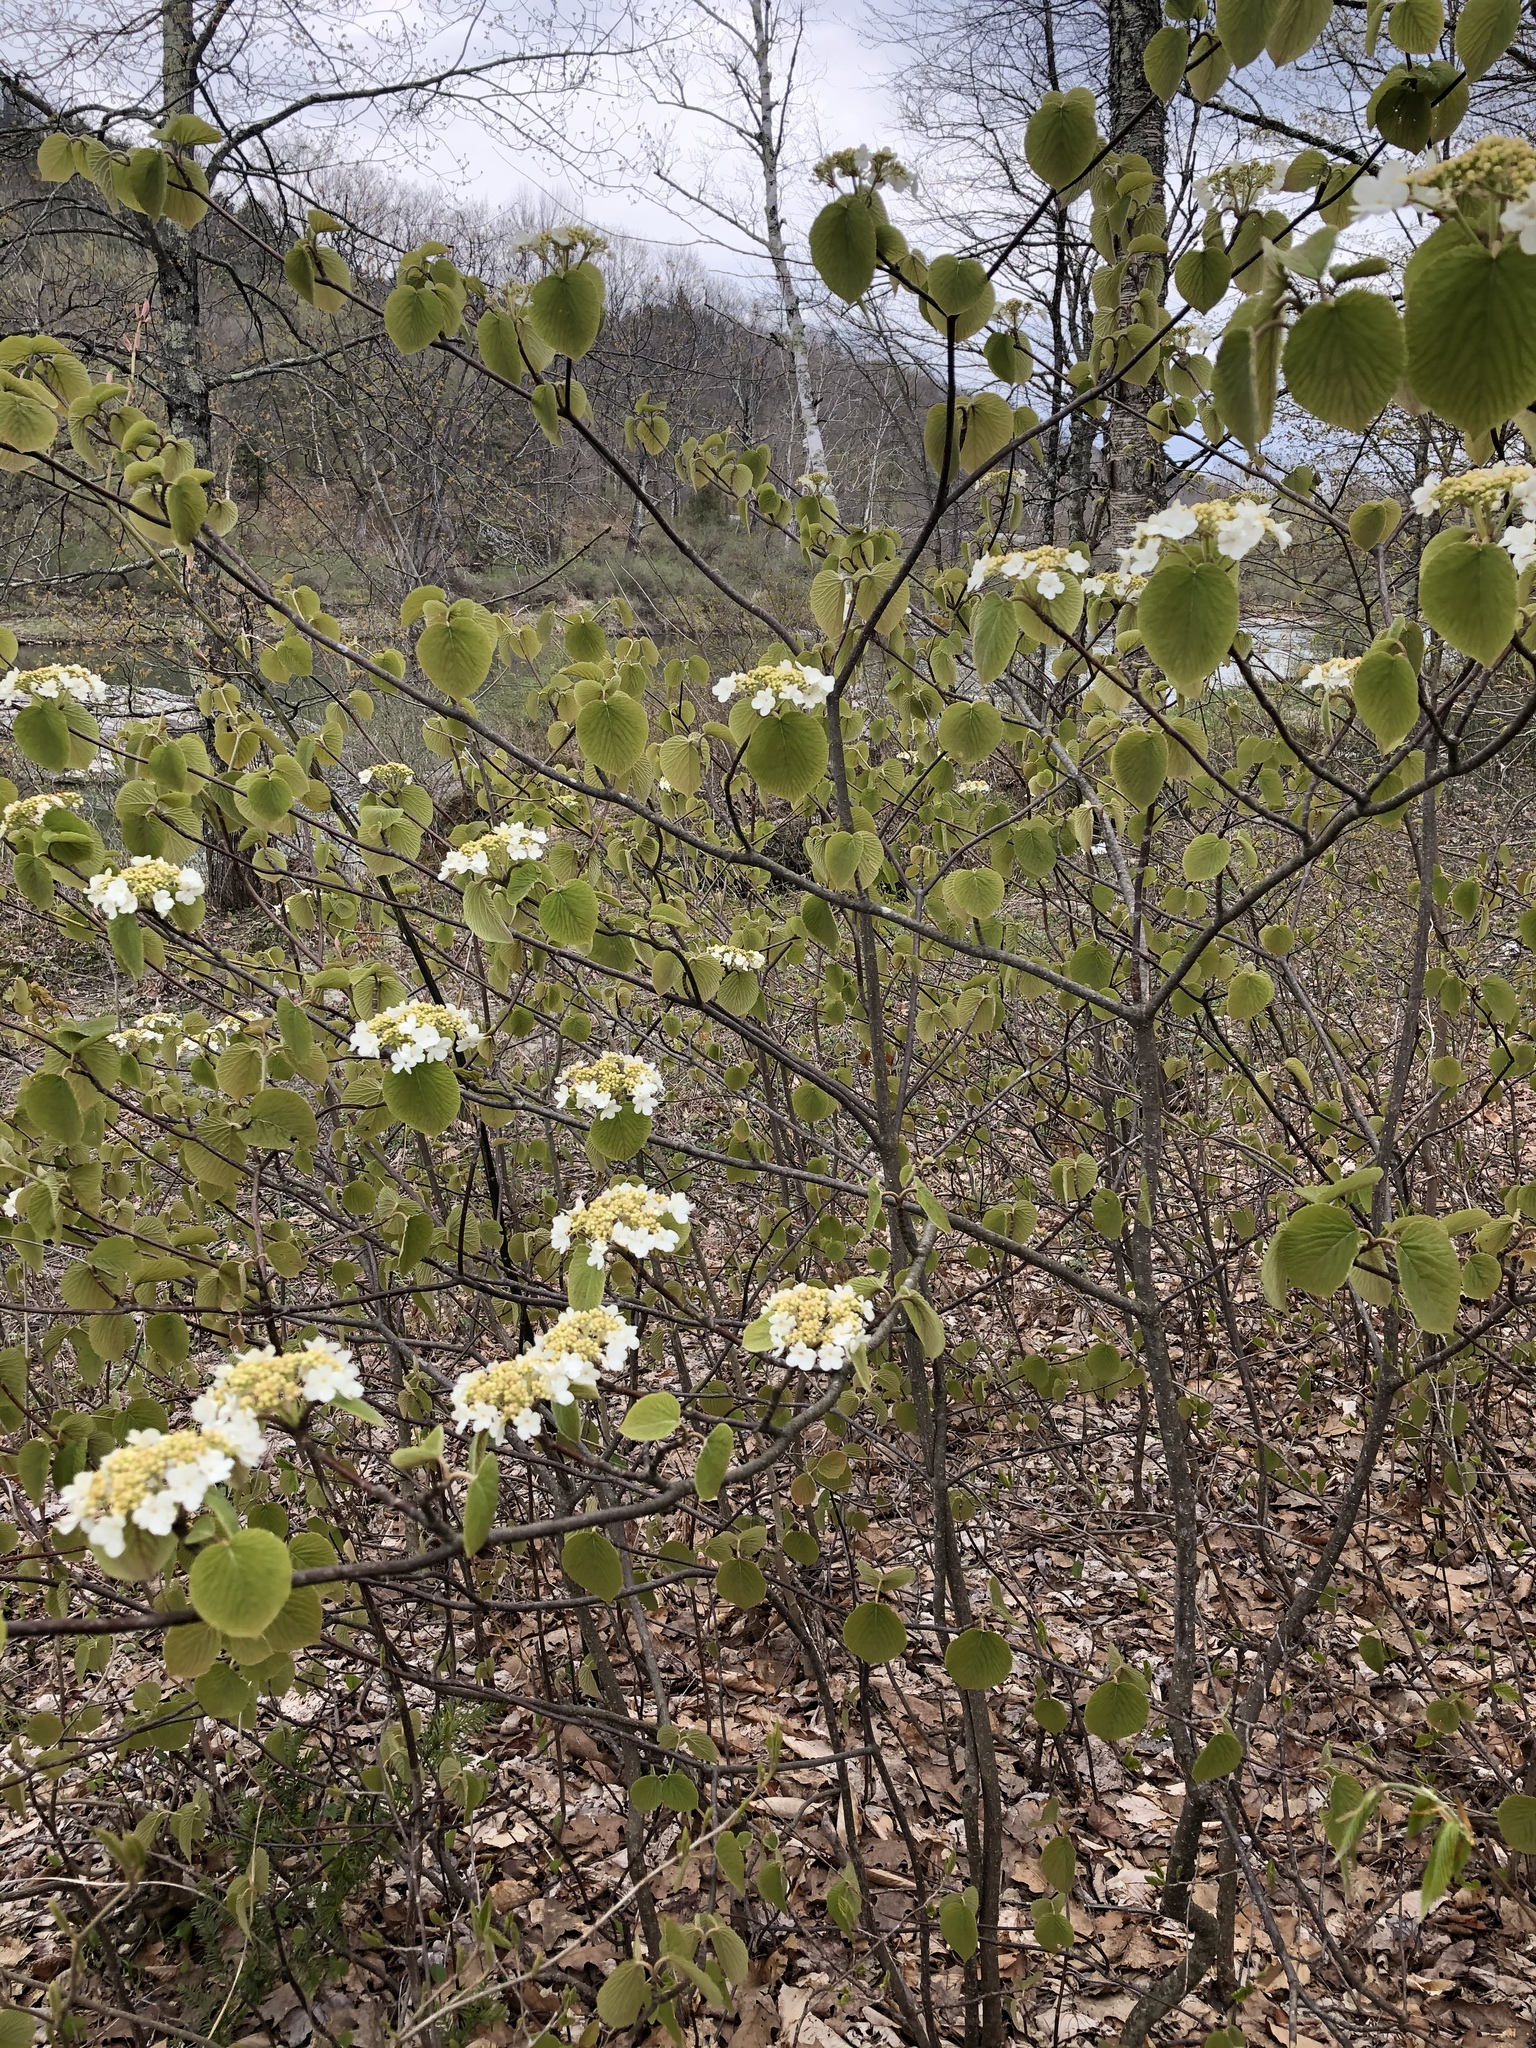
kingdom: Plantae
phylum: Tracheophyta
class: Magnoliopsida
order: Dipsacales
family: Viburnaceae
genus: Viburnum
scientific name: Viburnum lantanoides
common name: Hobblebush
